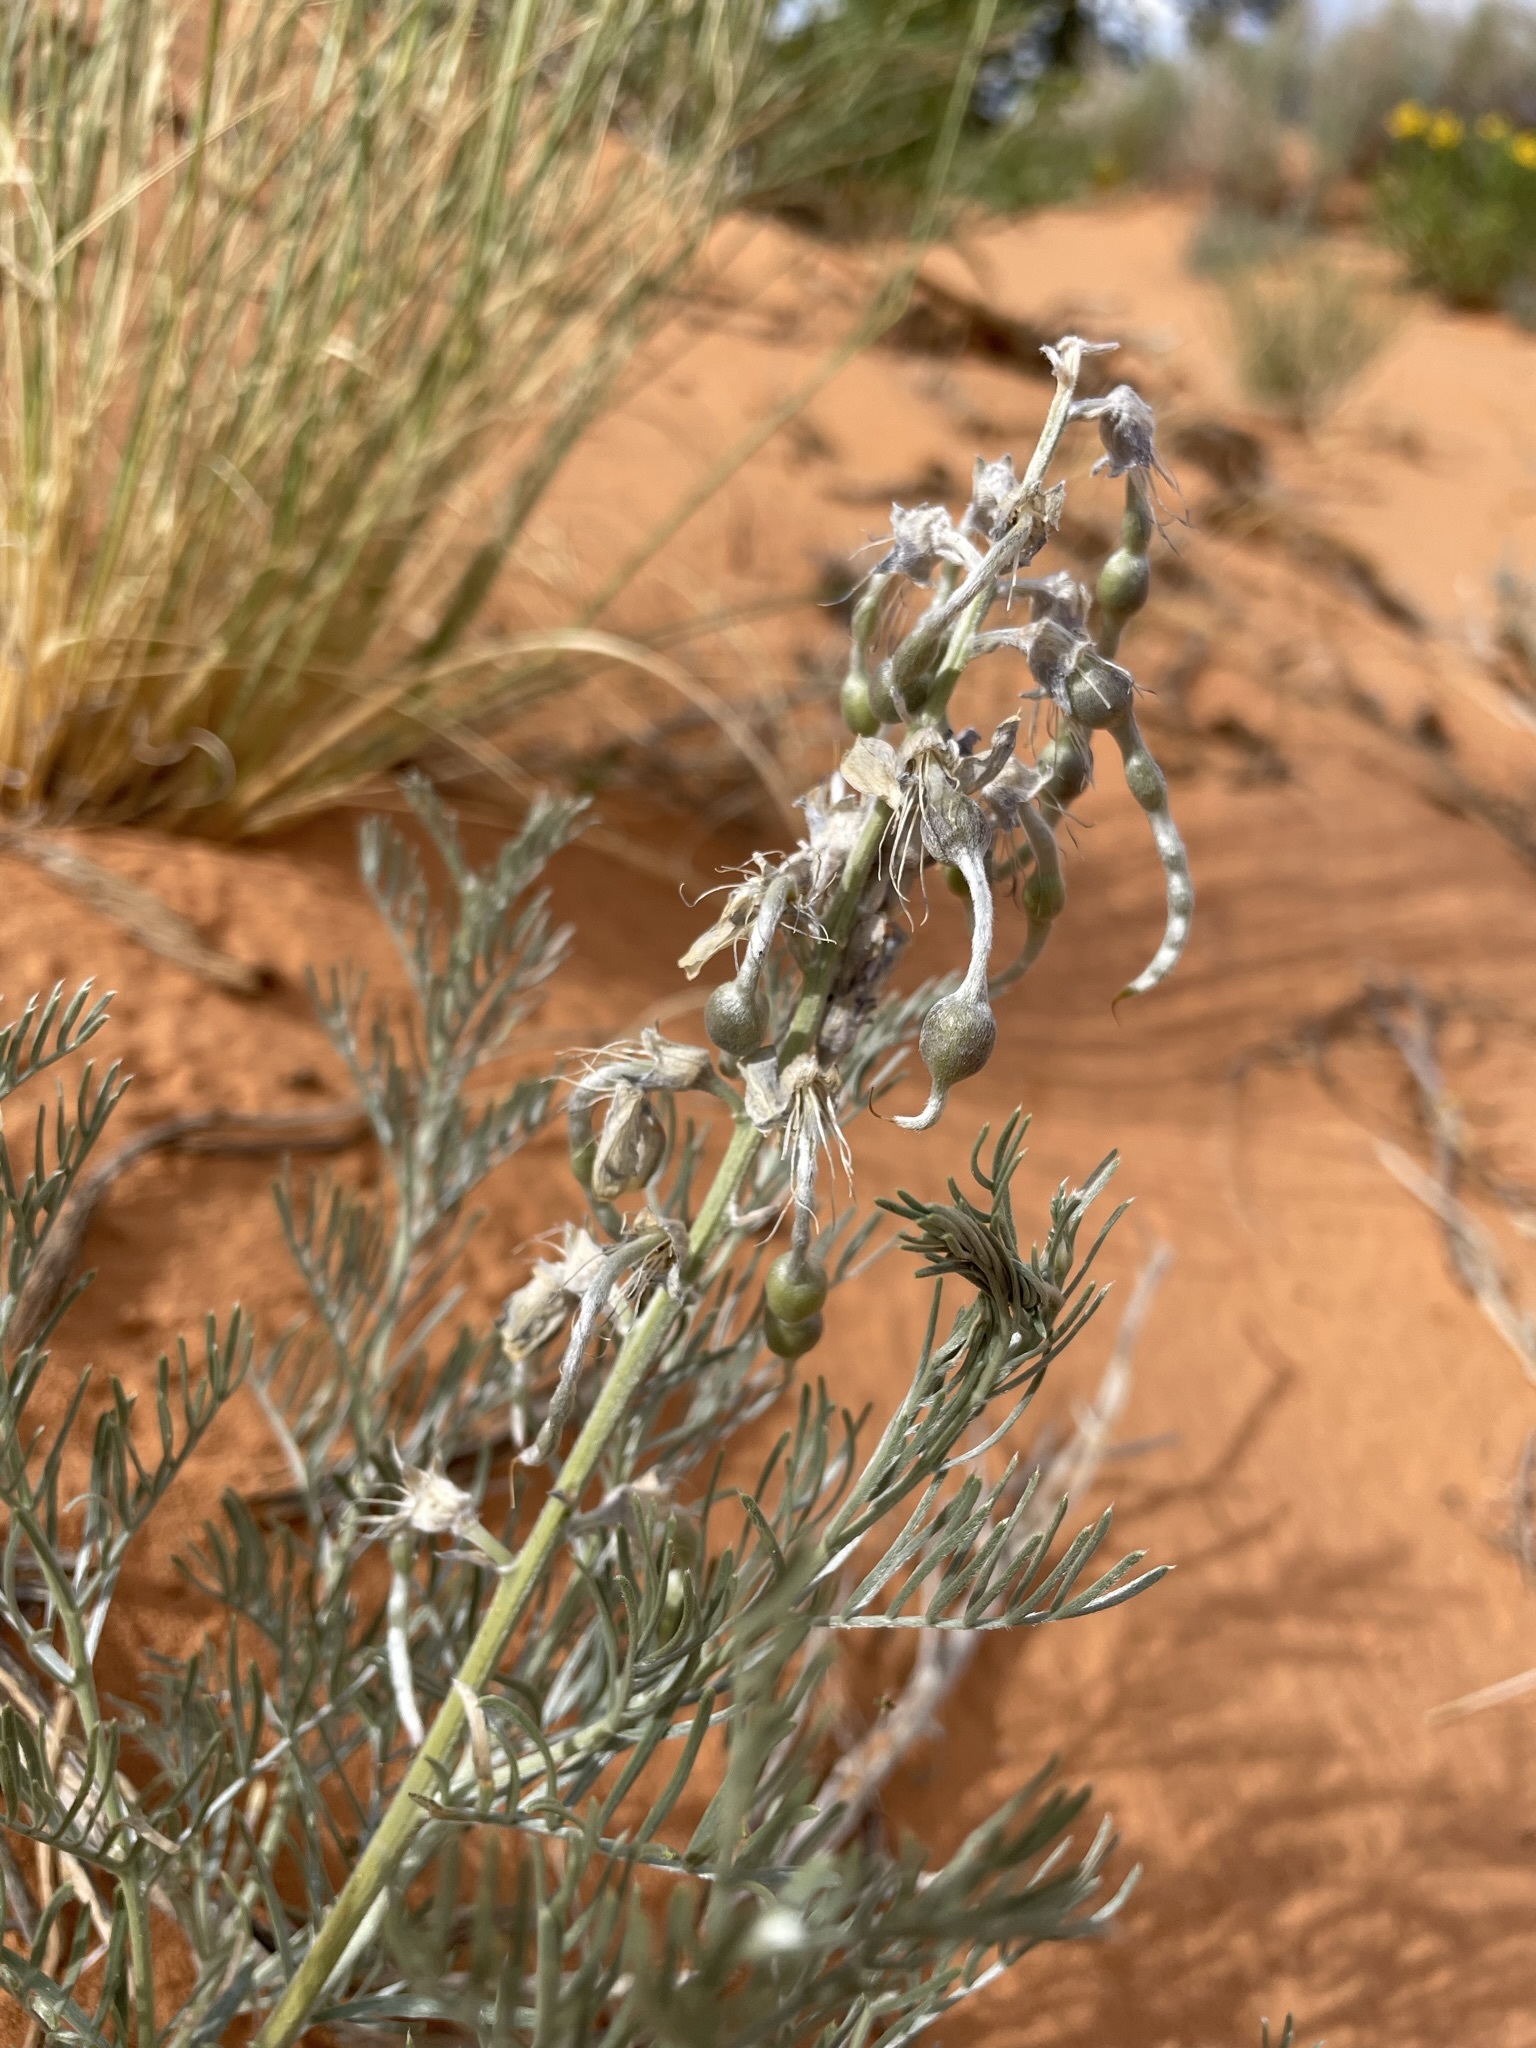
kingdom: Plantae
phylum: Tracheophyta
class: Magnoliopsida
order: Fabales
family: Fabaceae
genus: Sophora
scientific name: Sophora stenophylla
